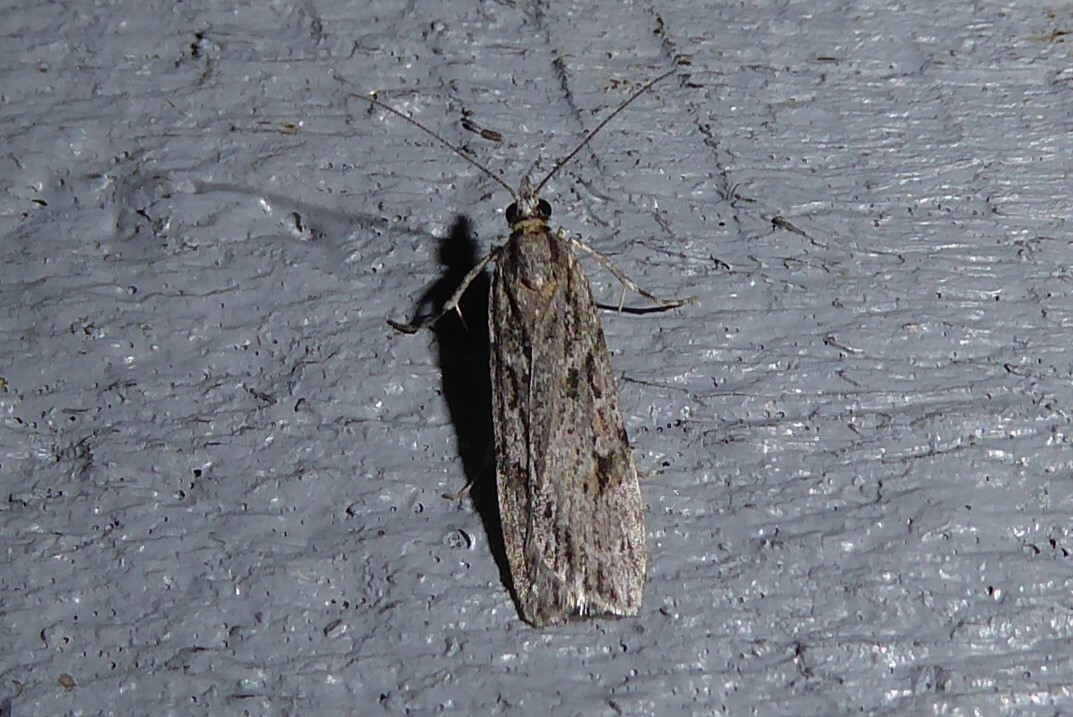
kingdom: Animalia
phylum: Arthropoda
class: Insecta
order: Lepidoptera
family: Crambidae
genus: Scoparia
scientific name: Scoparia chalicodes
